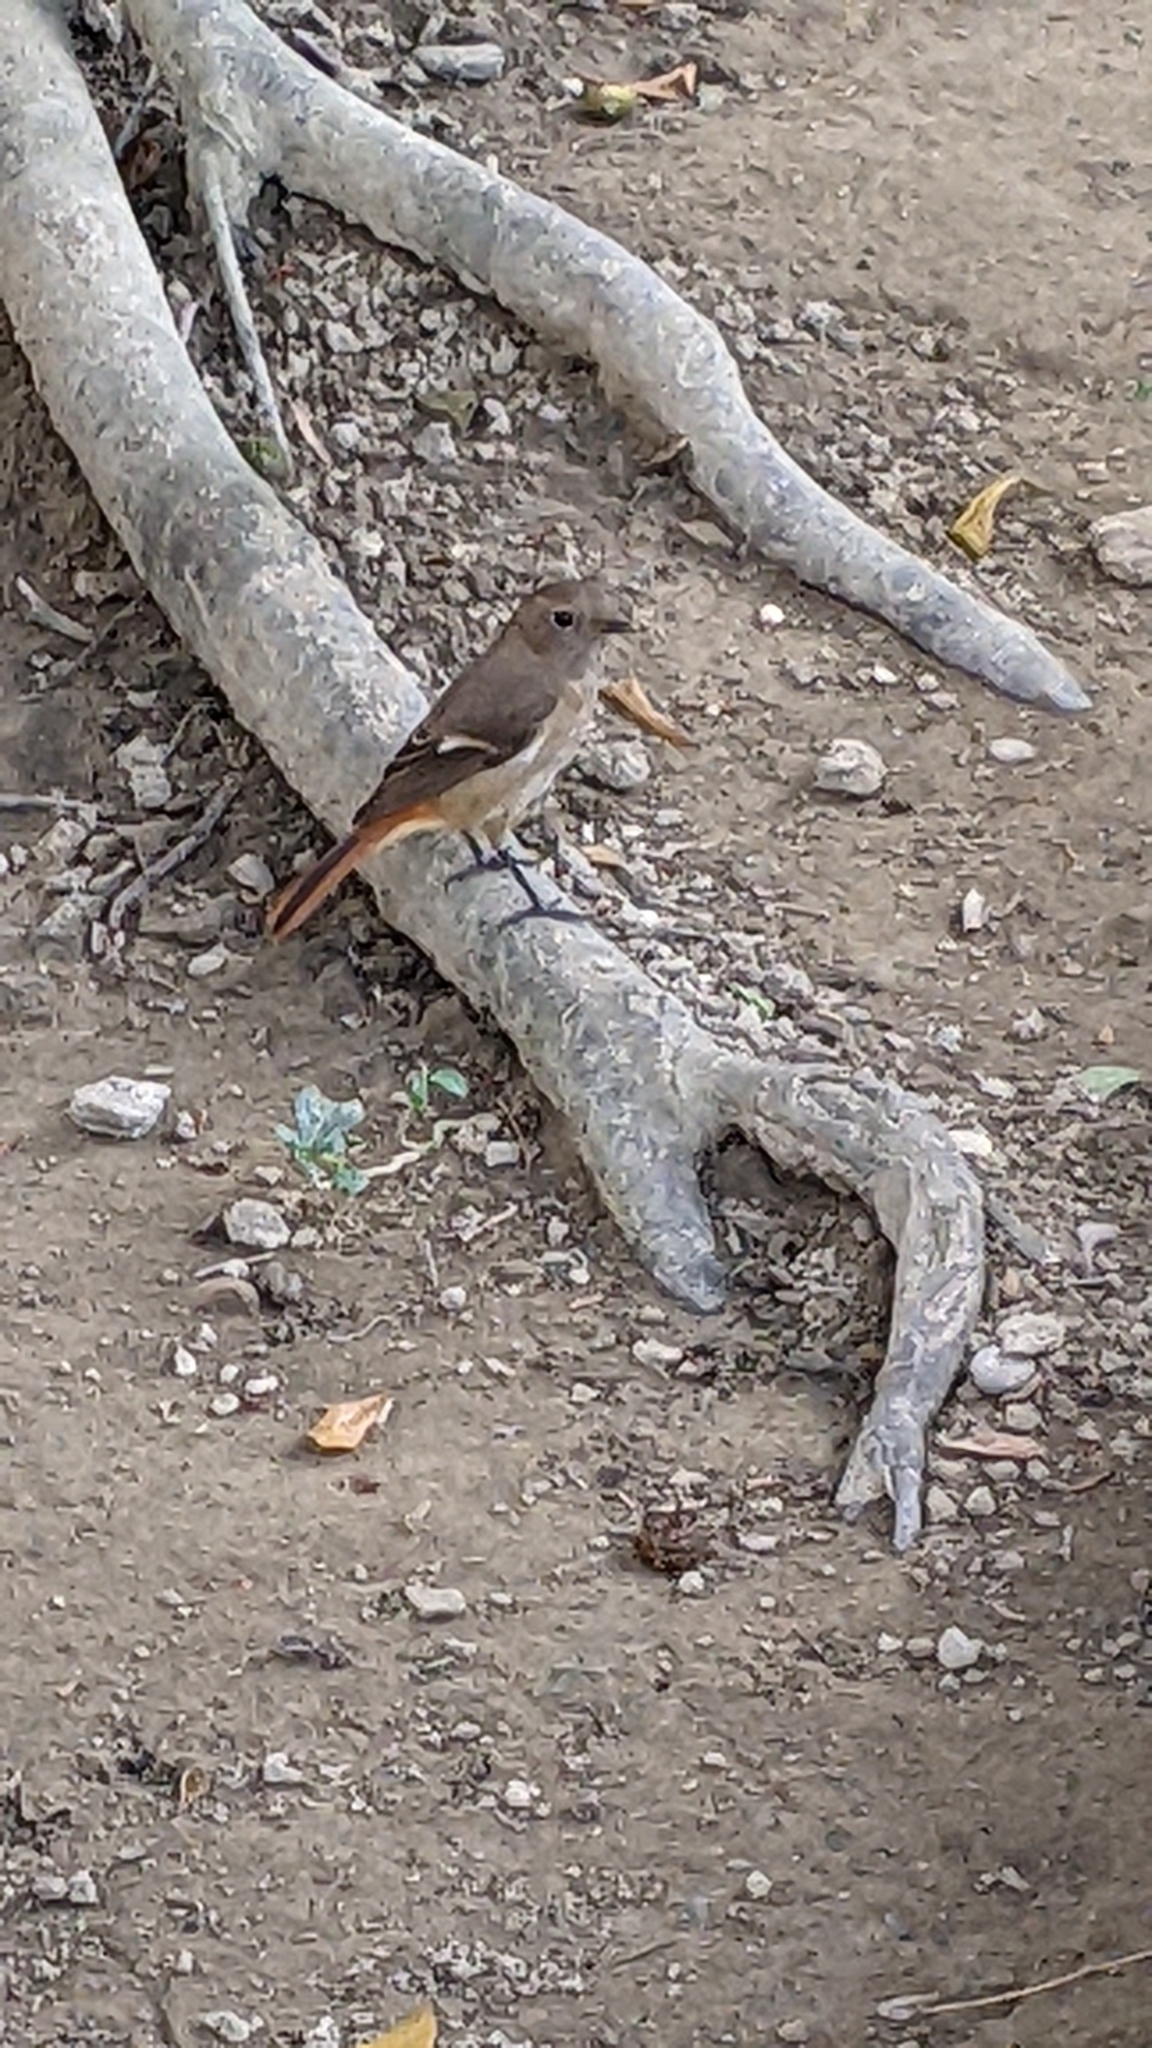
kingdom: Animalia
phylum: Chordata
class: Aves
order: Passeriformes
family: Muscicapidae
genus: Phoenicurus
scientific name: Phoenicurus auroreus
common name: Daurian redstart
